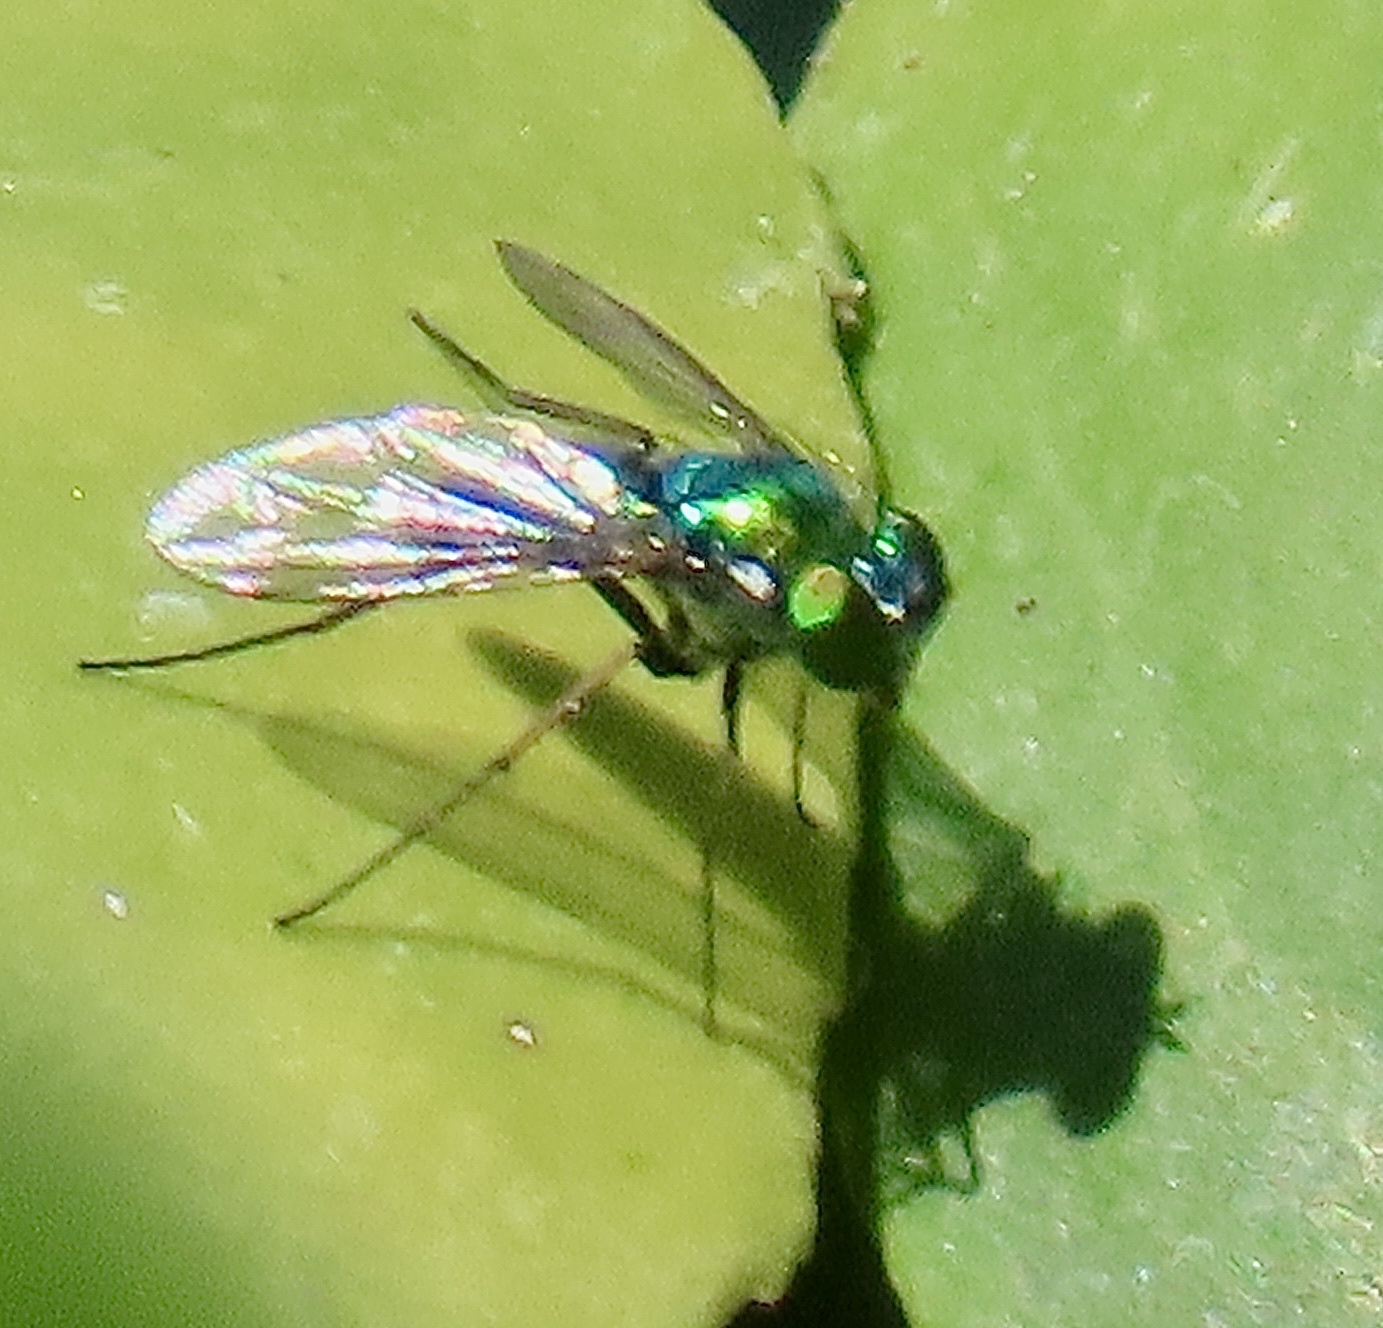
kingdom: Animalia
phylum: Arthropoda
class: Insecta
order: Diptera
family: Dolichopodidae
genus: Condylostylus
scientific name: Condylostylus longicornis
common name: Long-legged fly
